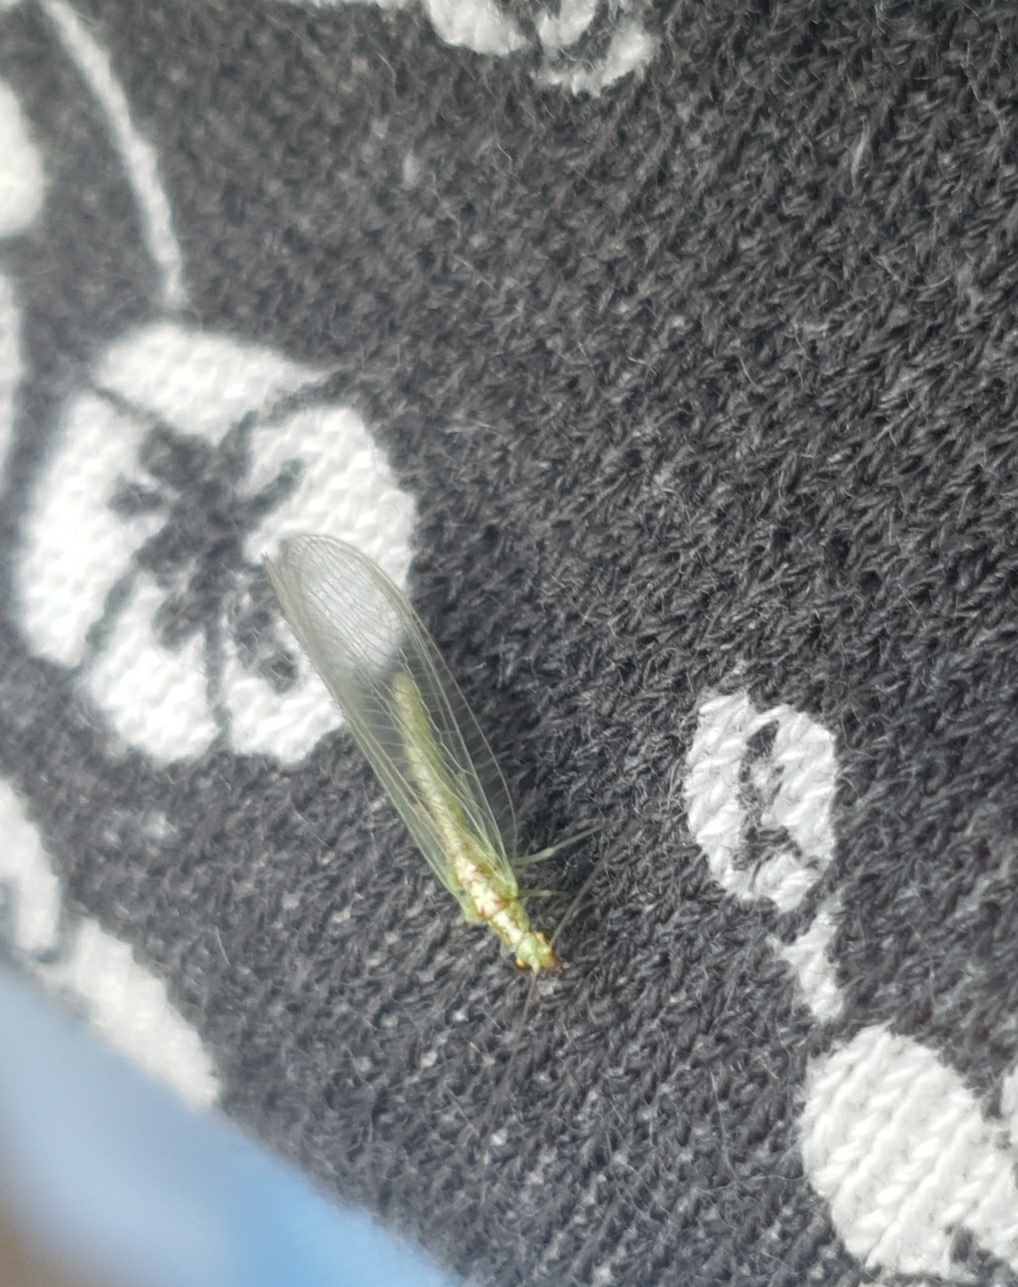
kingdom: Animalia
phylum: Arthropoda
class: Insecta
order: Neuroptera
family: Chrysopidae
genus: Chrysoperla
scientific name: Chrysoperla
